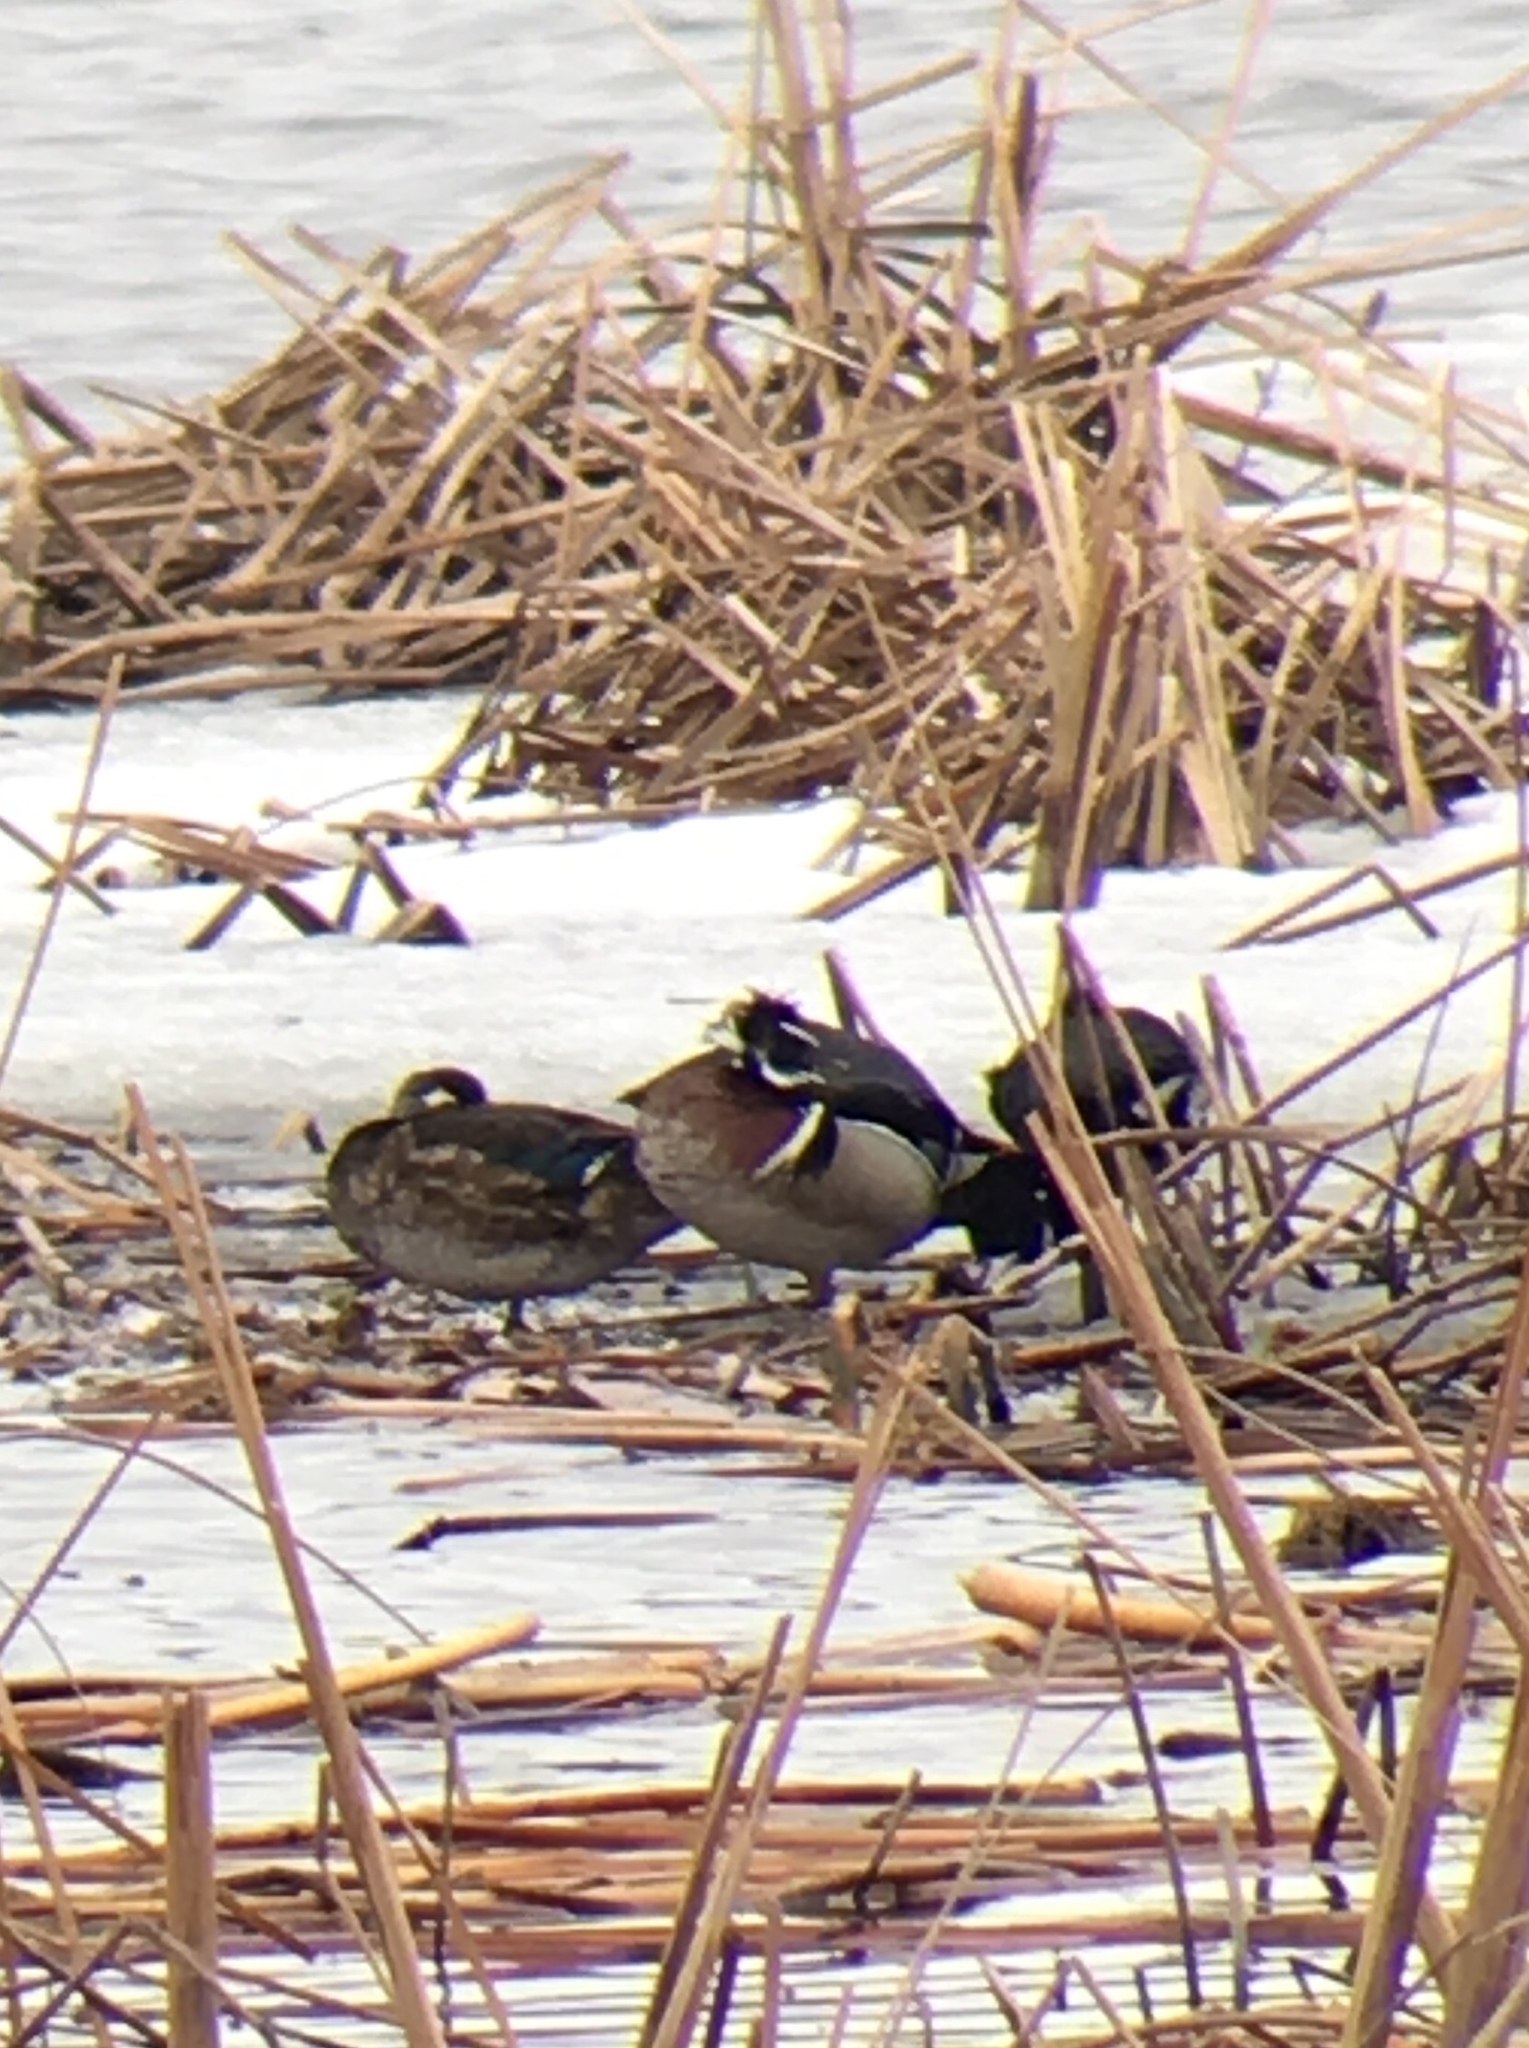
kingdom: Animalia
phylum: Chordata
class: Aves
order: Anseriformes
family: Anatidae
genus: Aix
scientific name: Aix sponsa
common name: Wood duck
